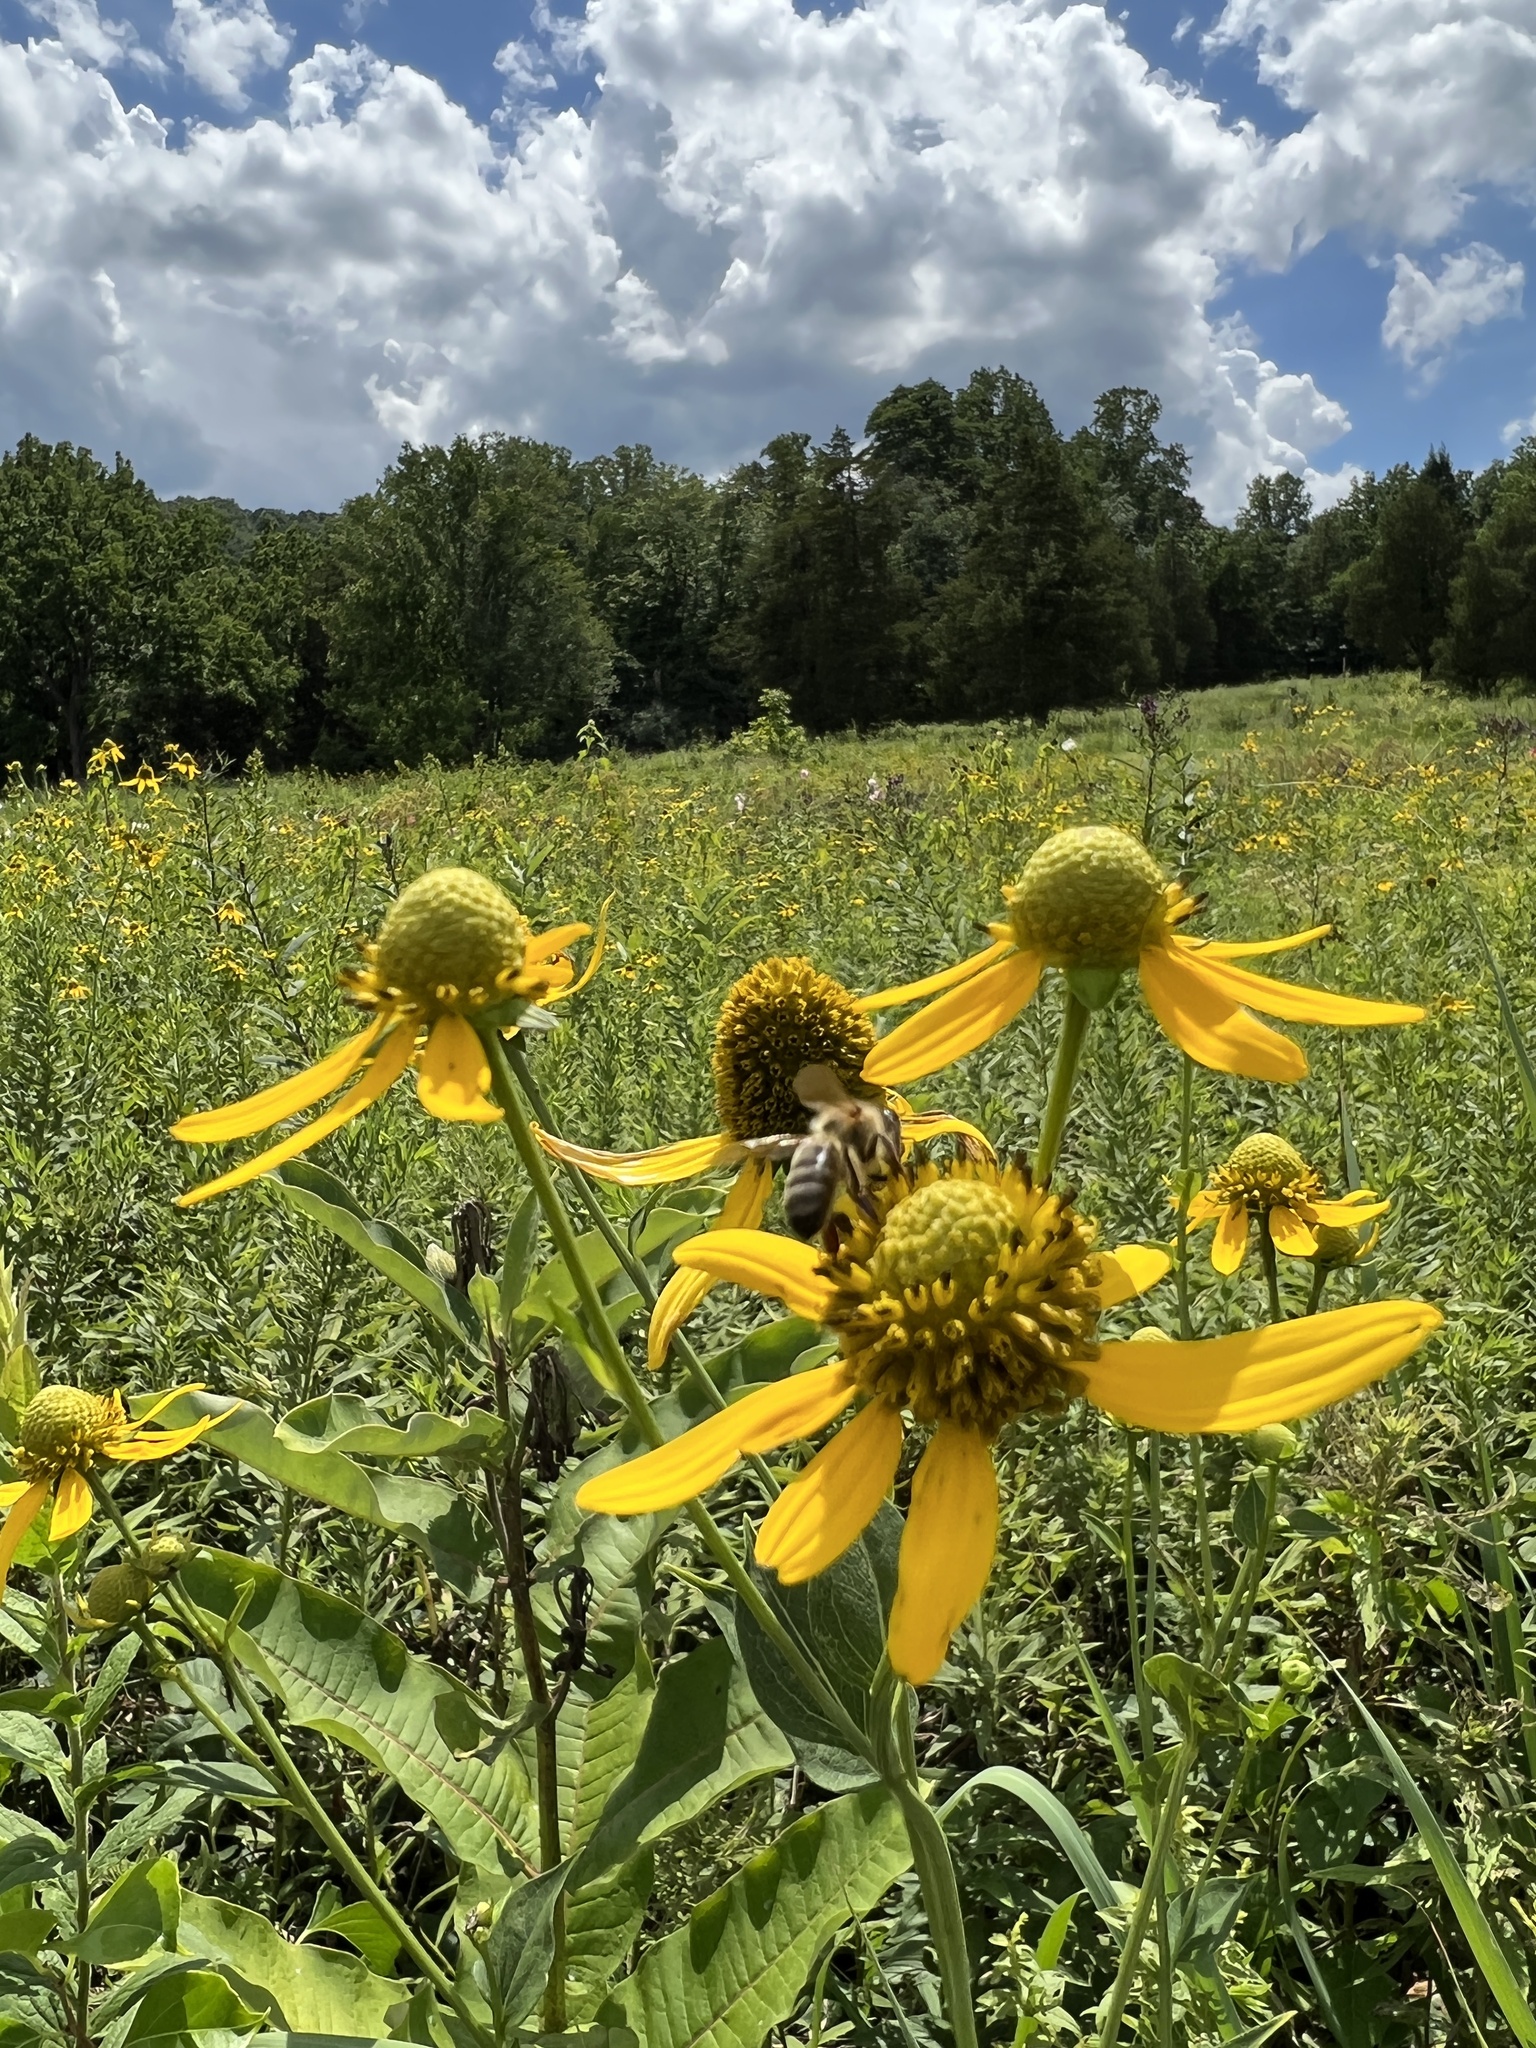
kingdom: Plantae
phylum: Tracheophyta
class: Magnoliopsida
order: Asterales
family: Asteraceae
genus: Rudbeckia
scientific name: Rudbeckia laciniata
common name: Coneflower
